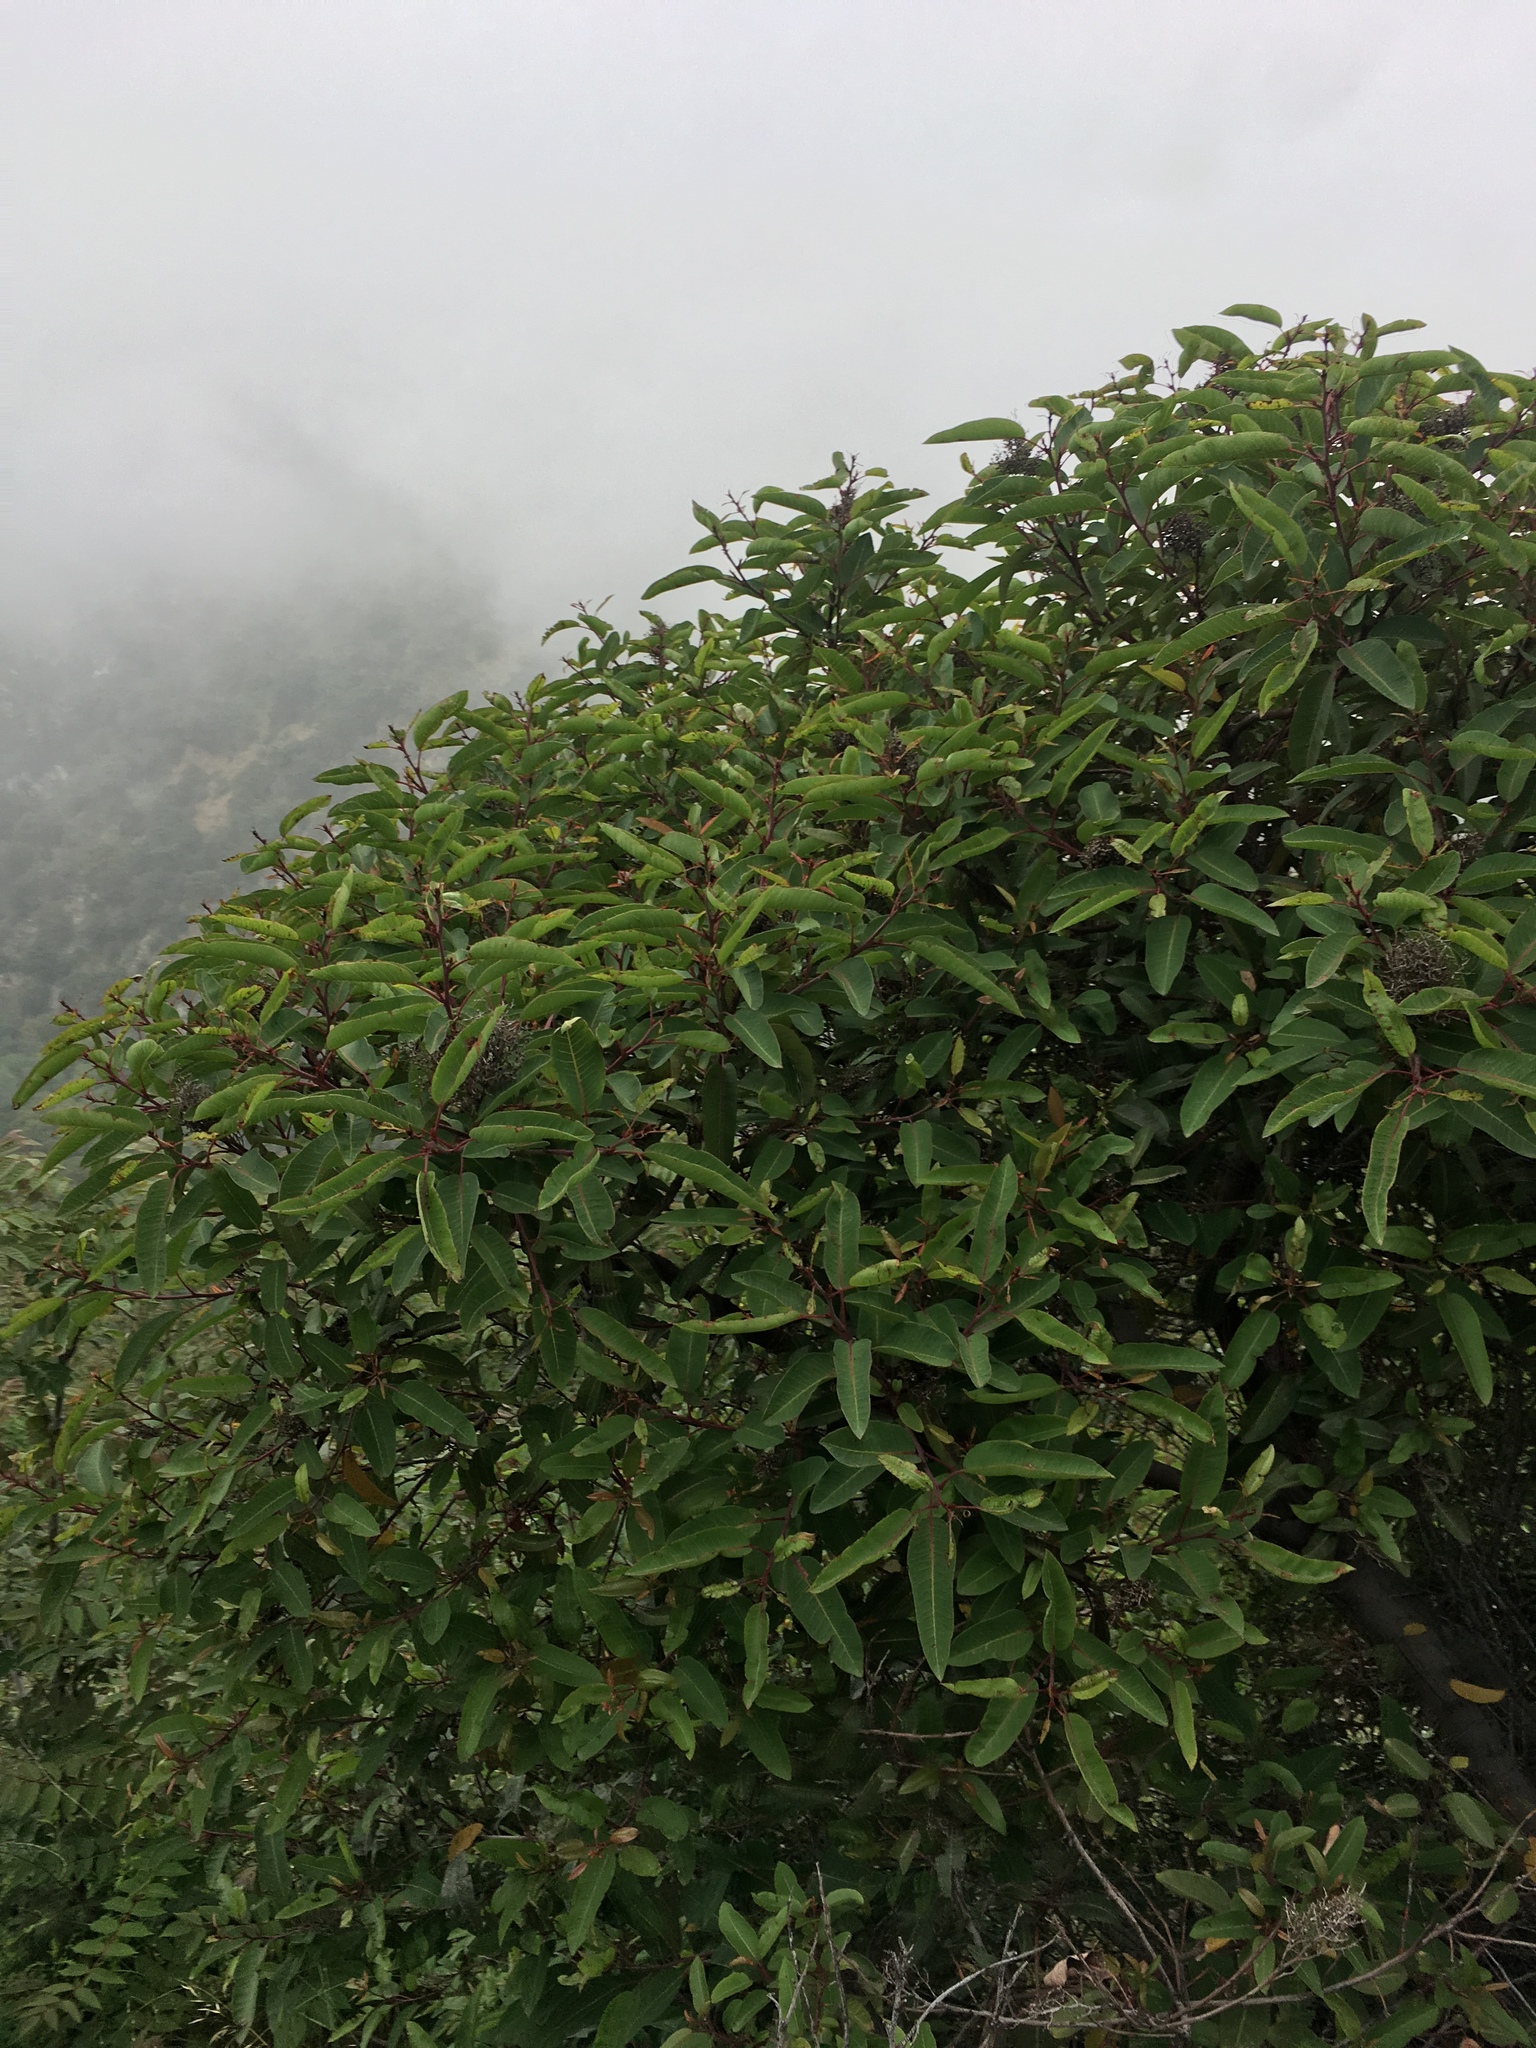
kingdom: Plantae
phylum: Tracheophyta
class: Magnoliopsida
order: Sapindales
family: Anacardiaceae
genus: Malosma
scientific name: Malosma laurina
